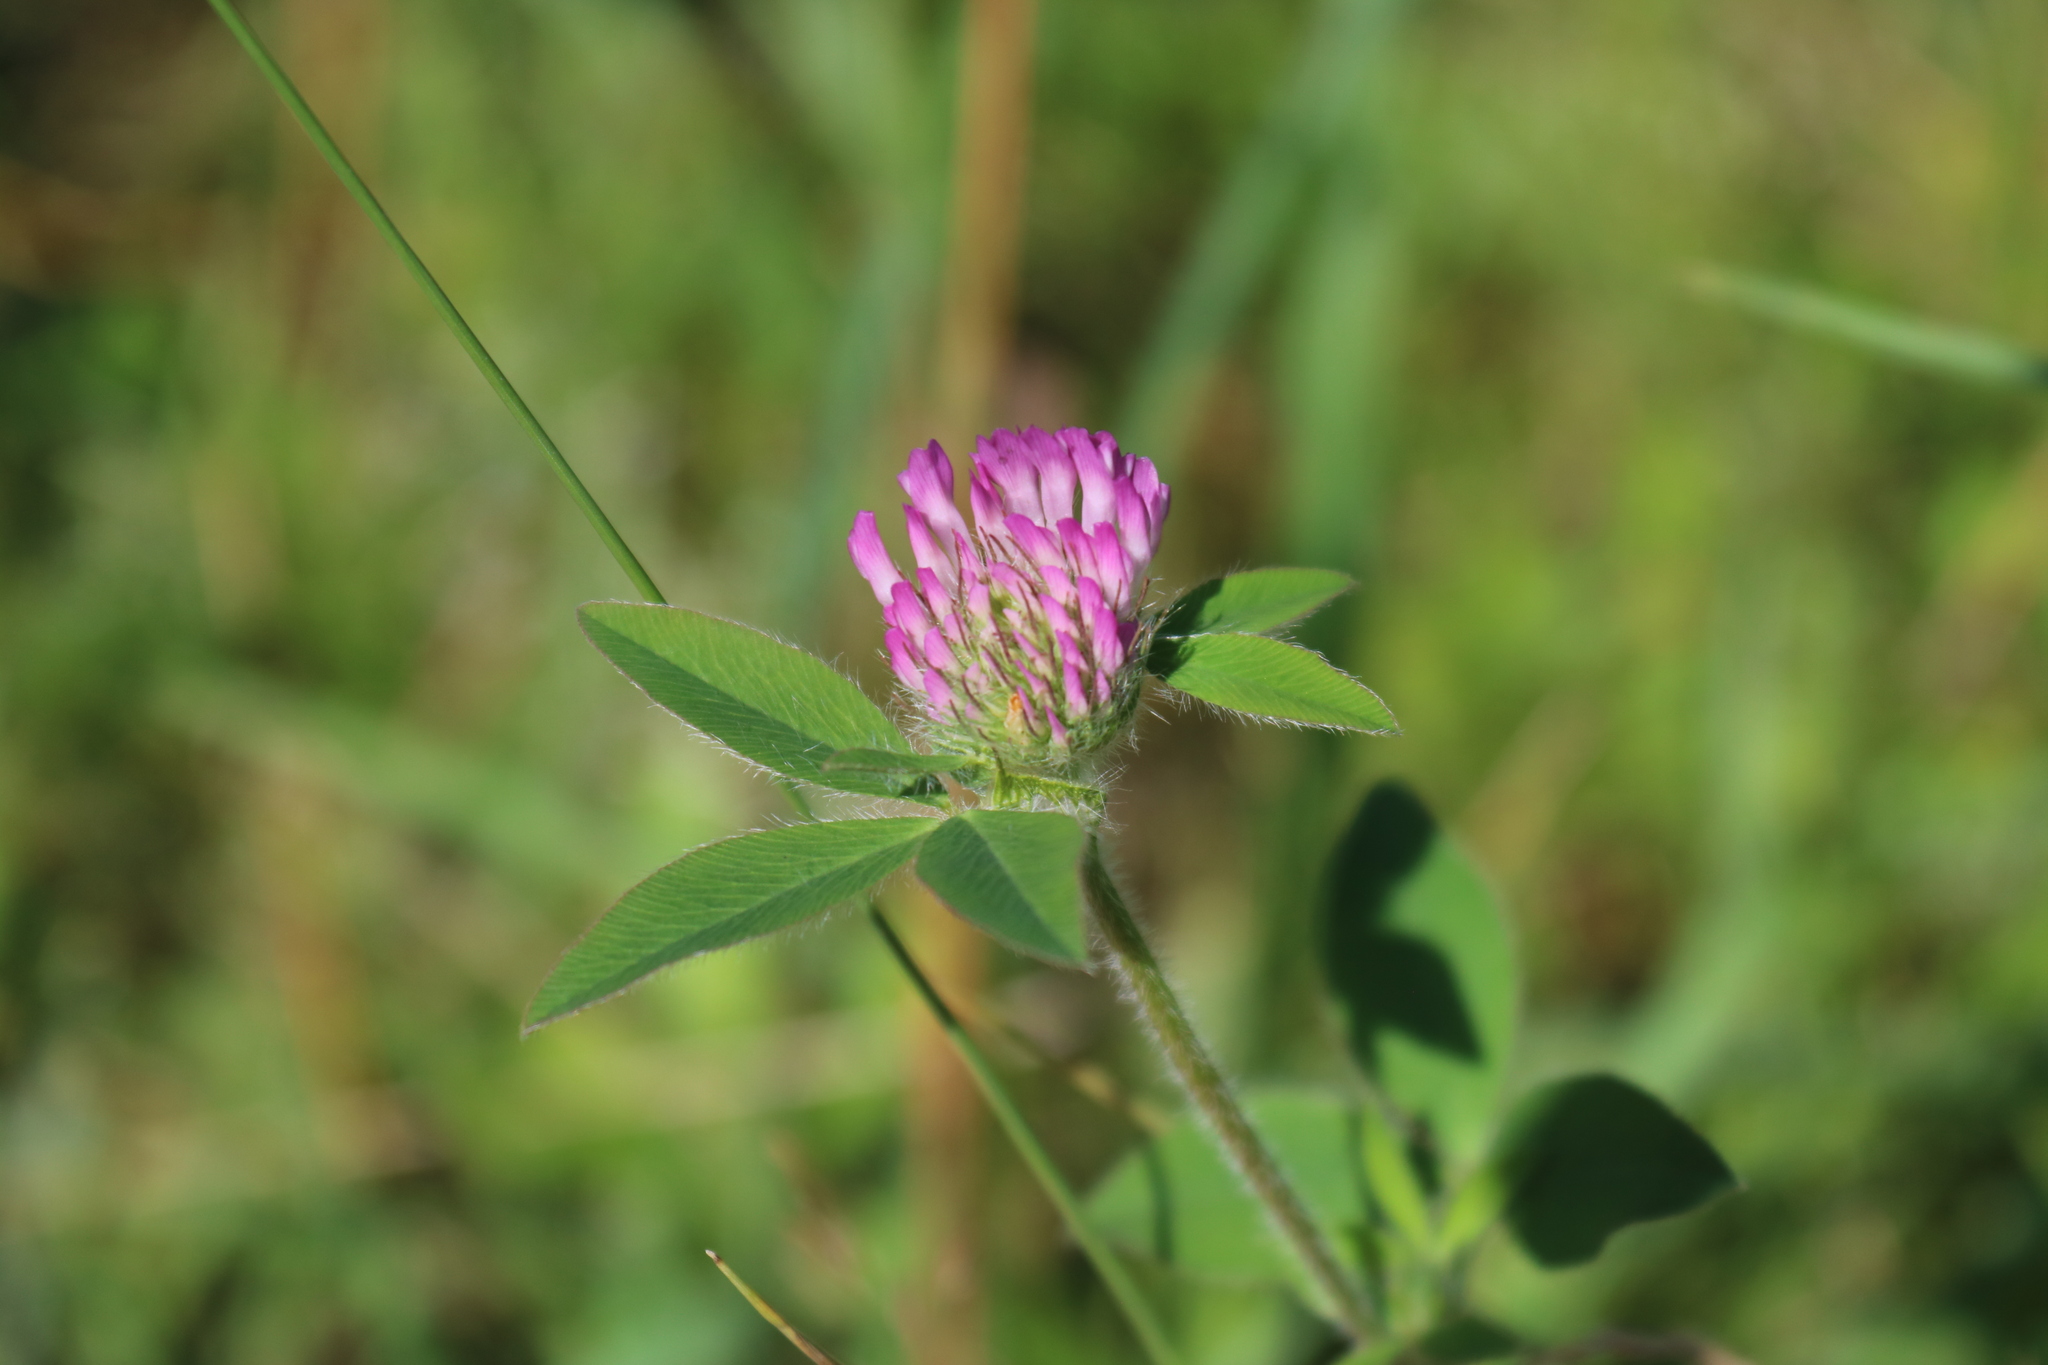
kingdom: Plantae
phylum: Tracheophyta
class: Magnoliopsida
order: Fabales
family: Fabaceae
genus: Trifolium
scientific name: Trifolium pratense
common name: Red clover
